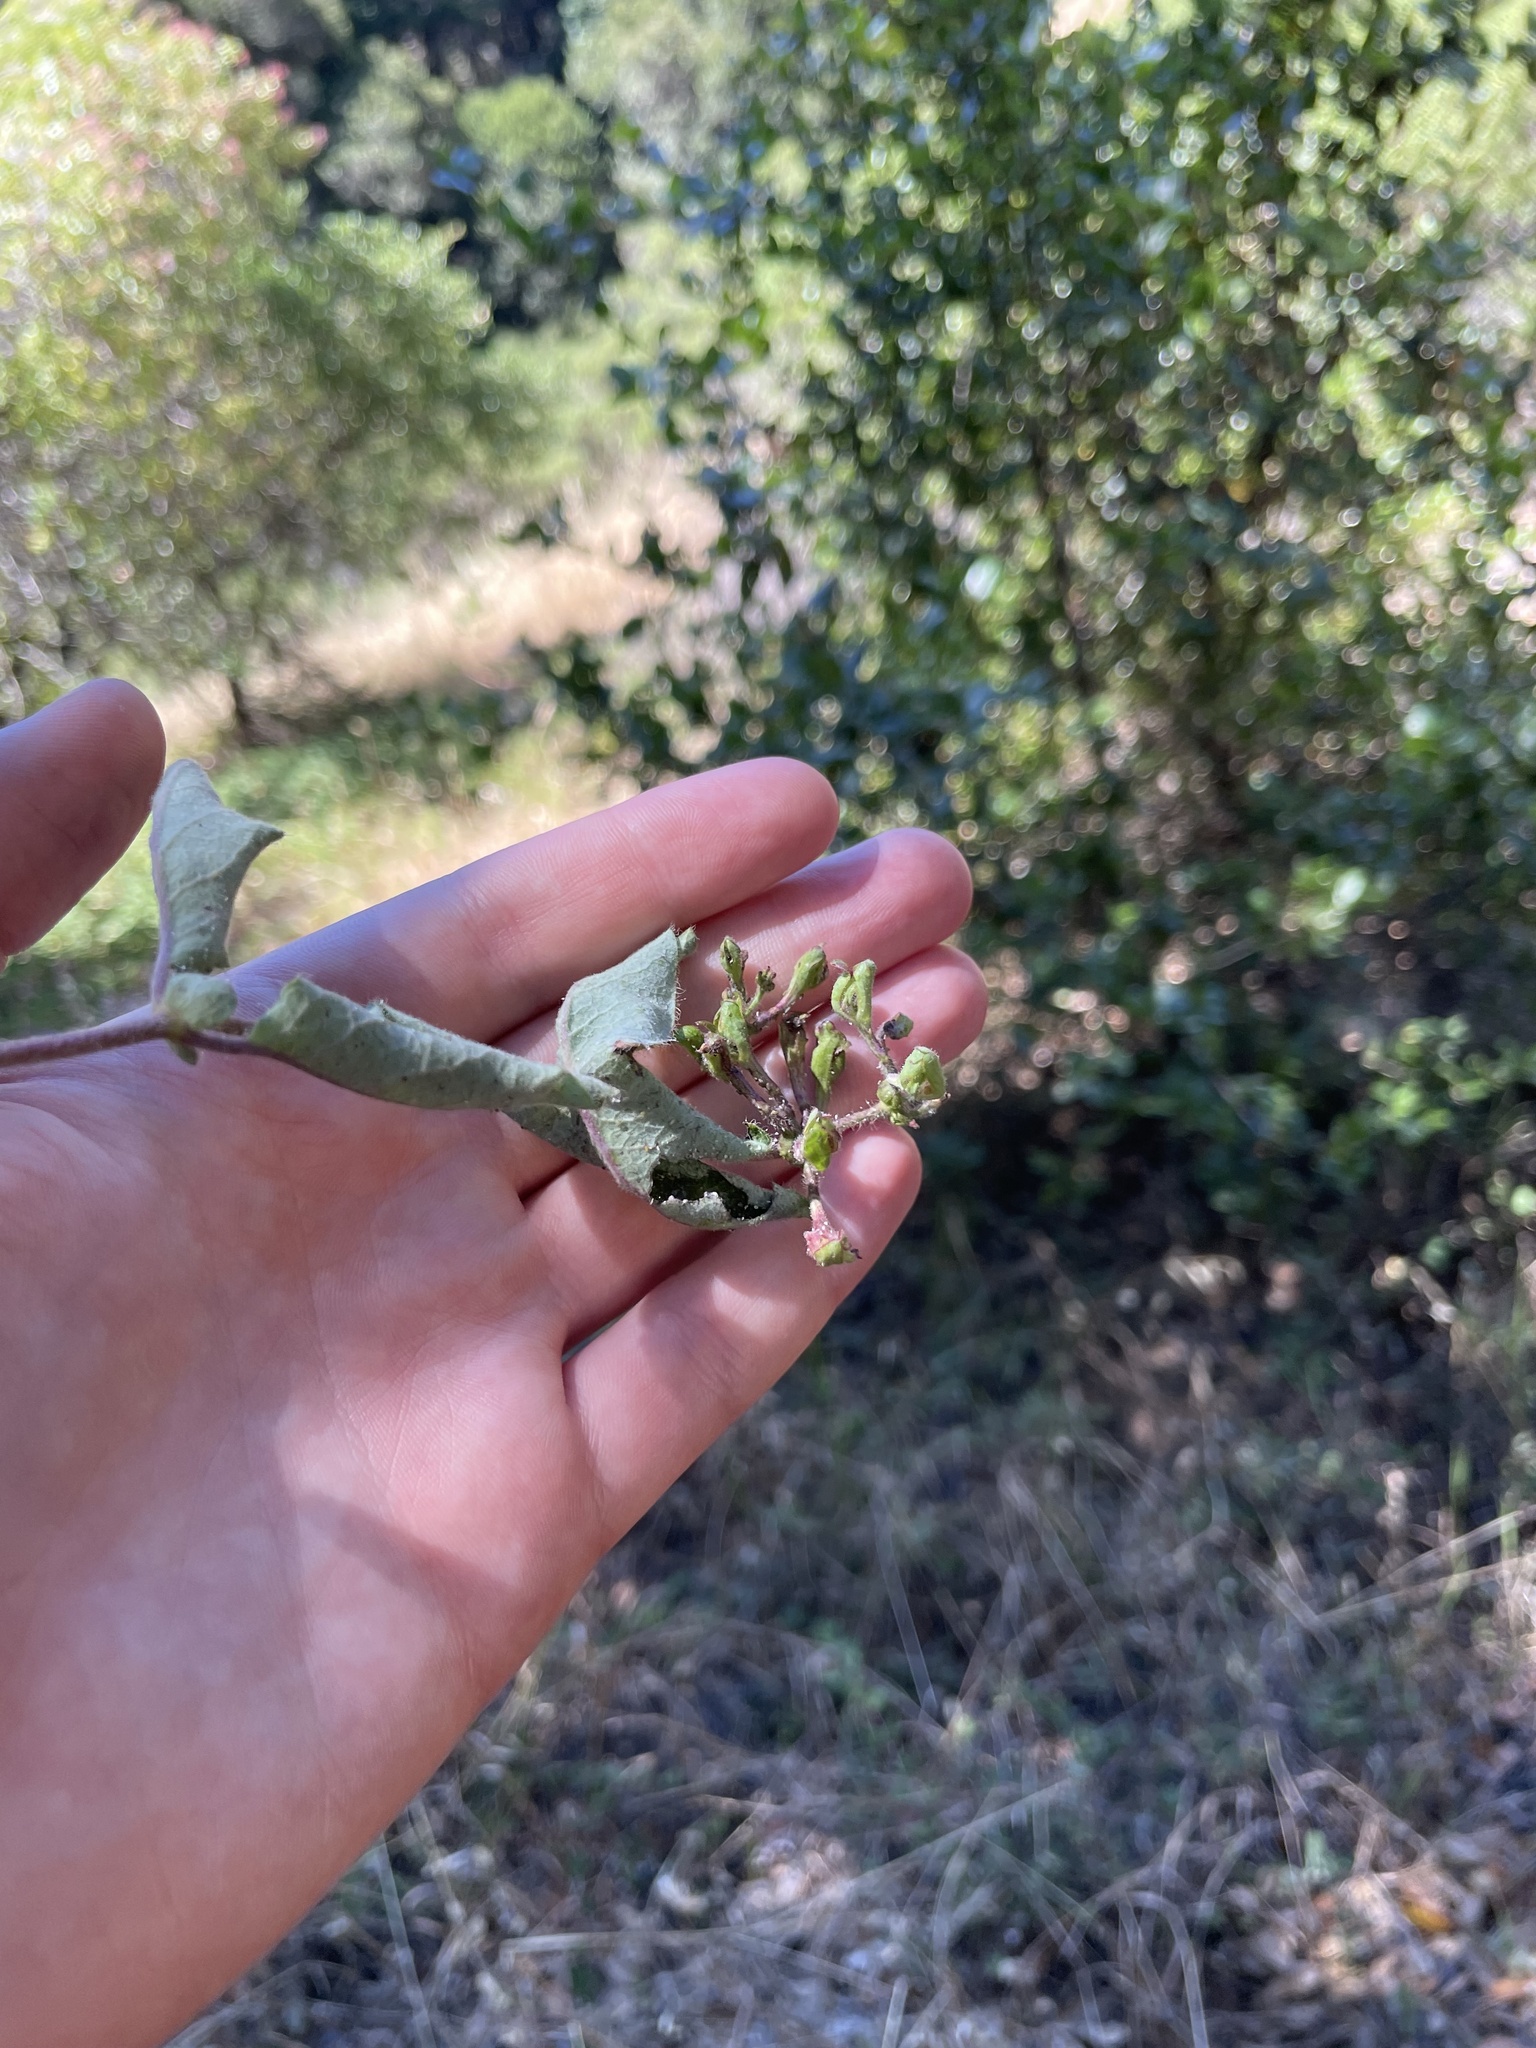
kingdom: Plantae
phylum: Tracheophyta
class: Magnoliopsida
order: Dipsacales
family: Caprifoliaceae
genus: Lonicera
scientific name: Lonicera hispidula
